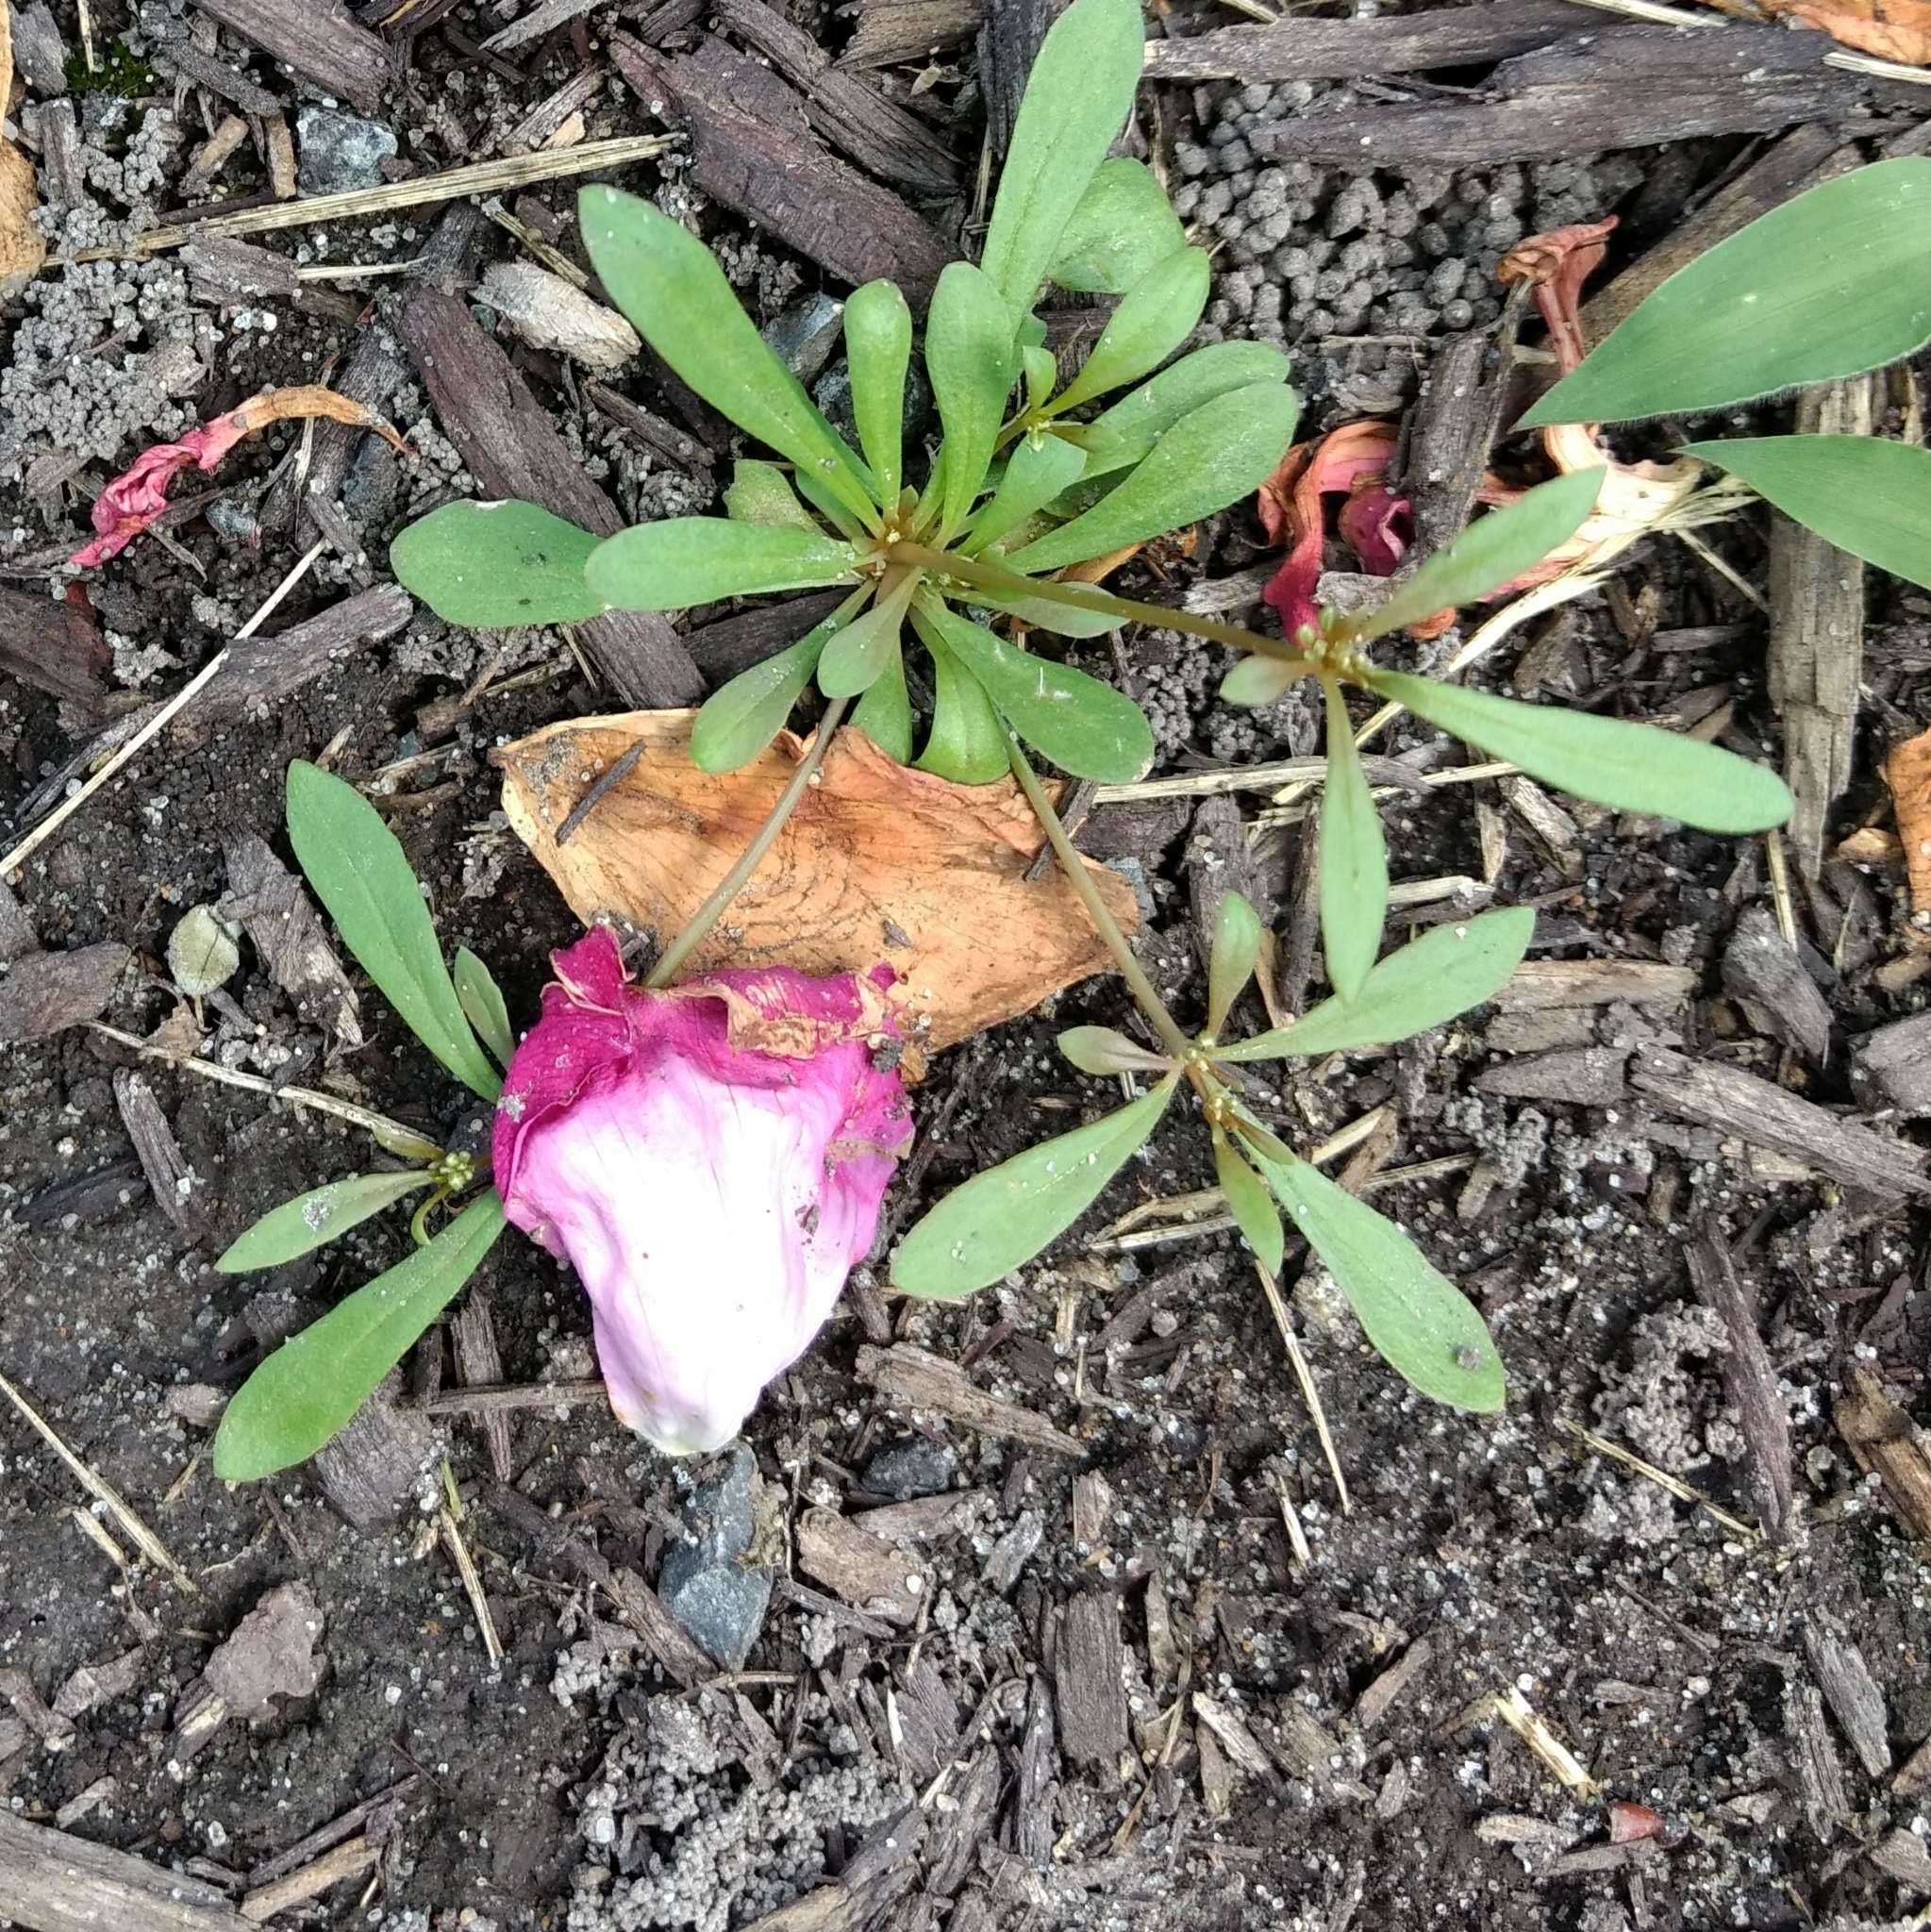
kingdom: Plantae
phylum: Tracheophyta
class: Magnoliopsida
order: Caryophyllales
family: Molluginaceae
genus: Mollugo
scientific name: Mollugo verticillata
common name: Green carpetweed
